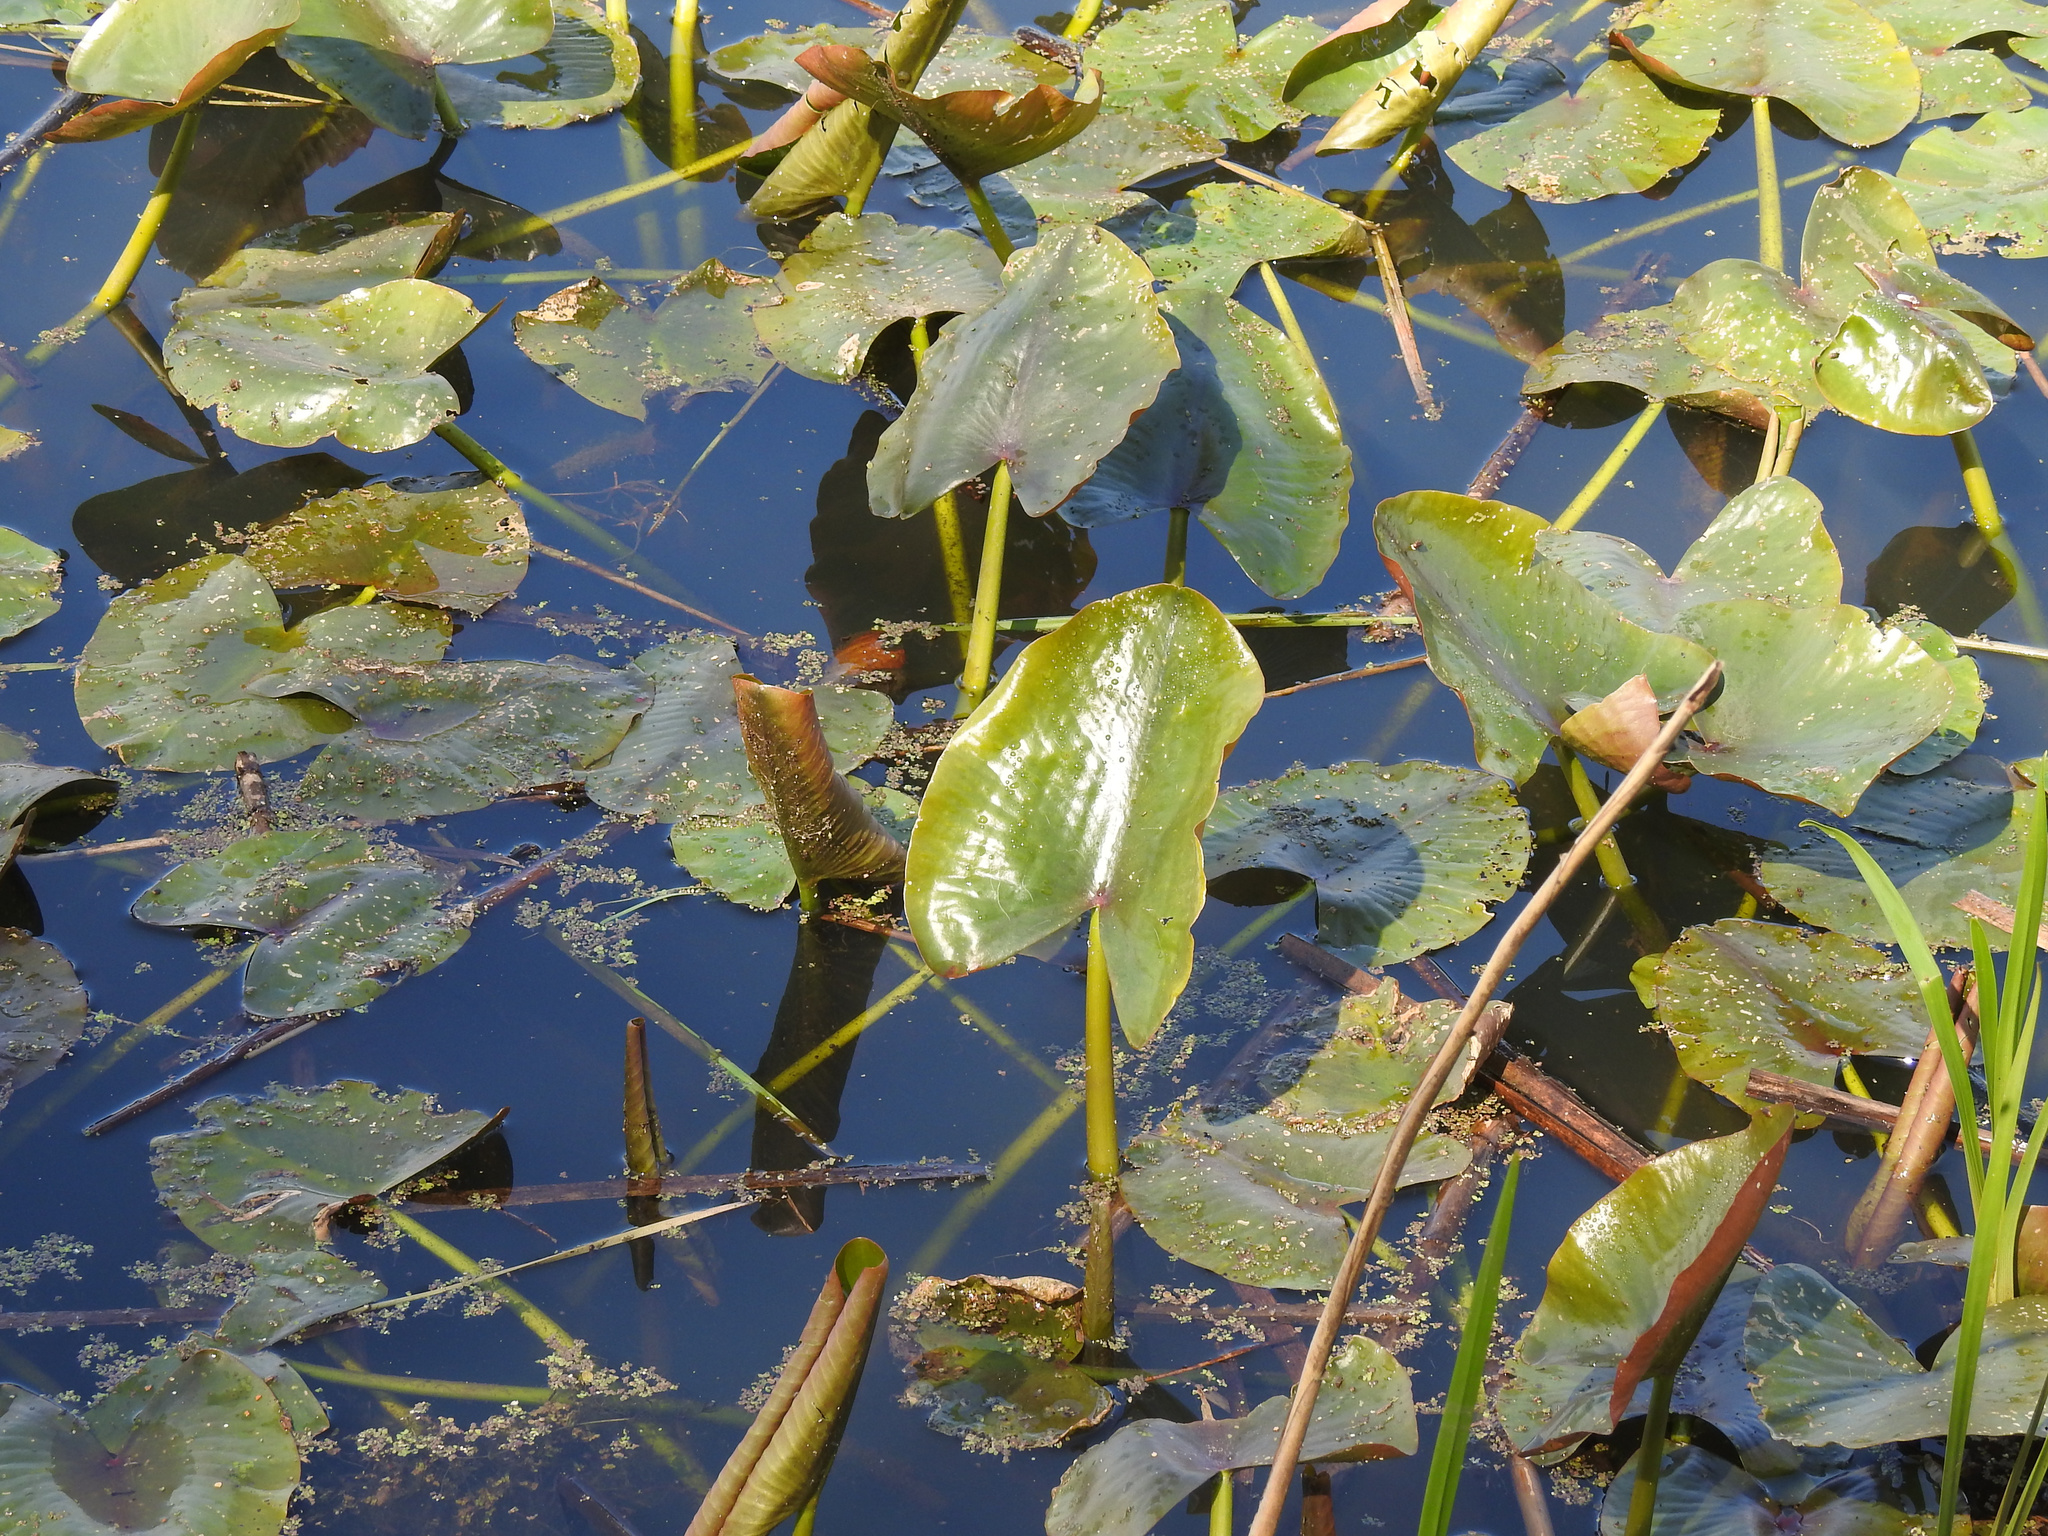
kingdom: Plantae
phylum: Tracheophyta
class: Magnoliopsida
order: Nymphaeales
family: Nymphaeaceae
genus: Nuphar
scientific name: Nuphar advena
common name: Spatter-dock
